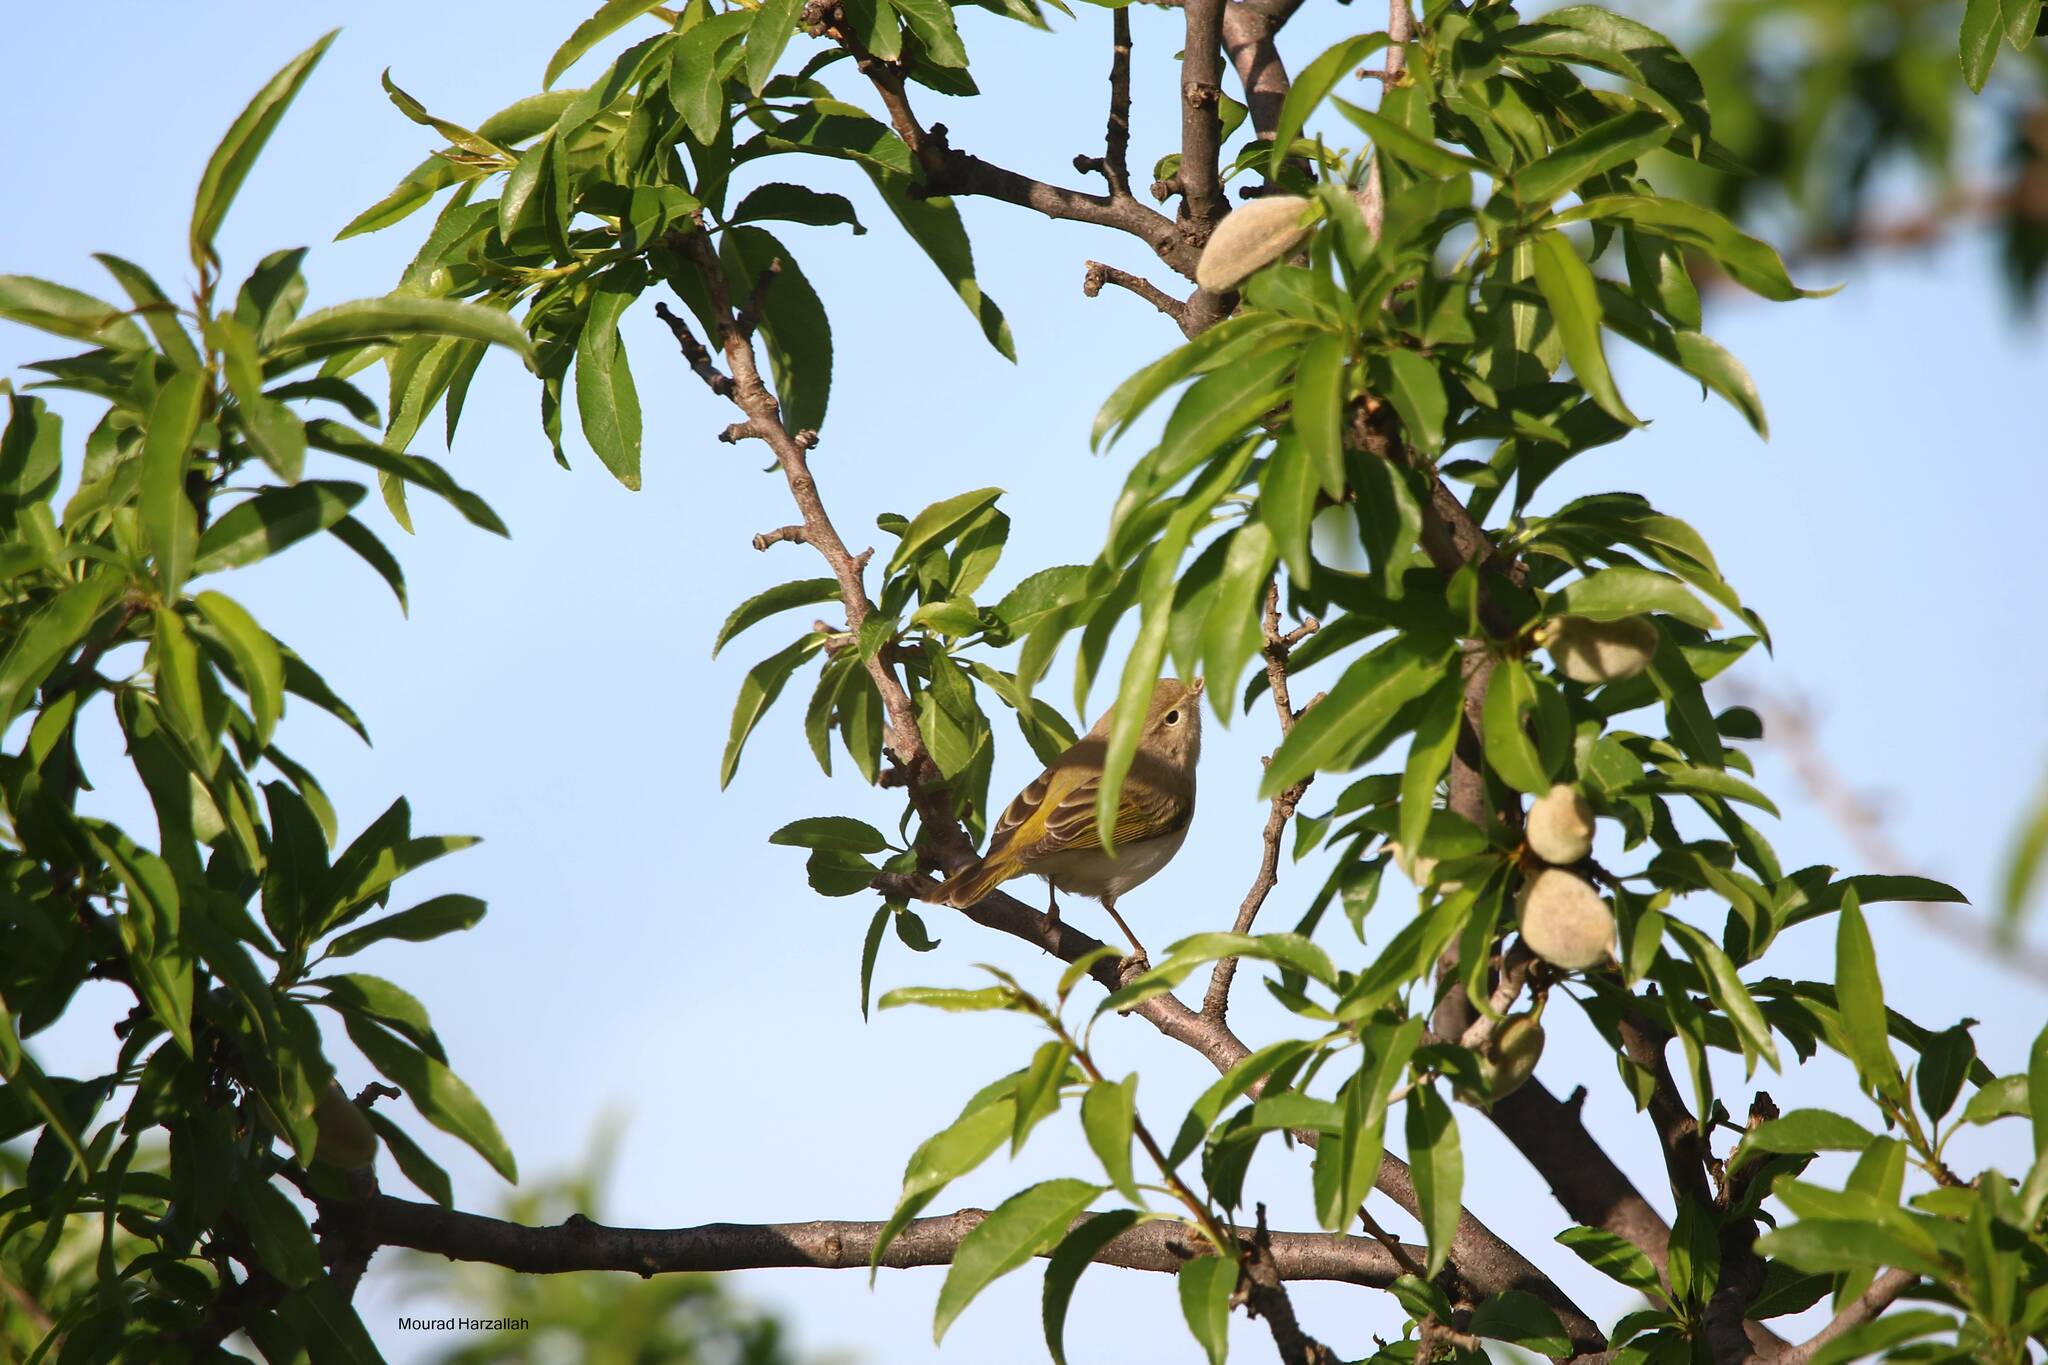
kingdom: Animalia
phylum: Chordata
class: Aves
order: Passeriformes
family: Phylloscopidae
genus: Phylloscopus
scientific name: Phylloscopus bonelli
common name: Western bonelli's warbler
